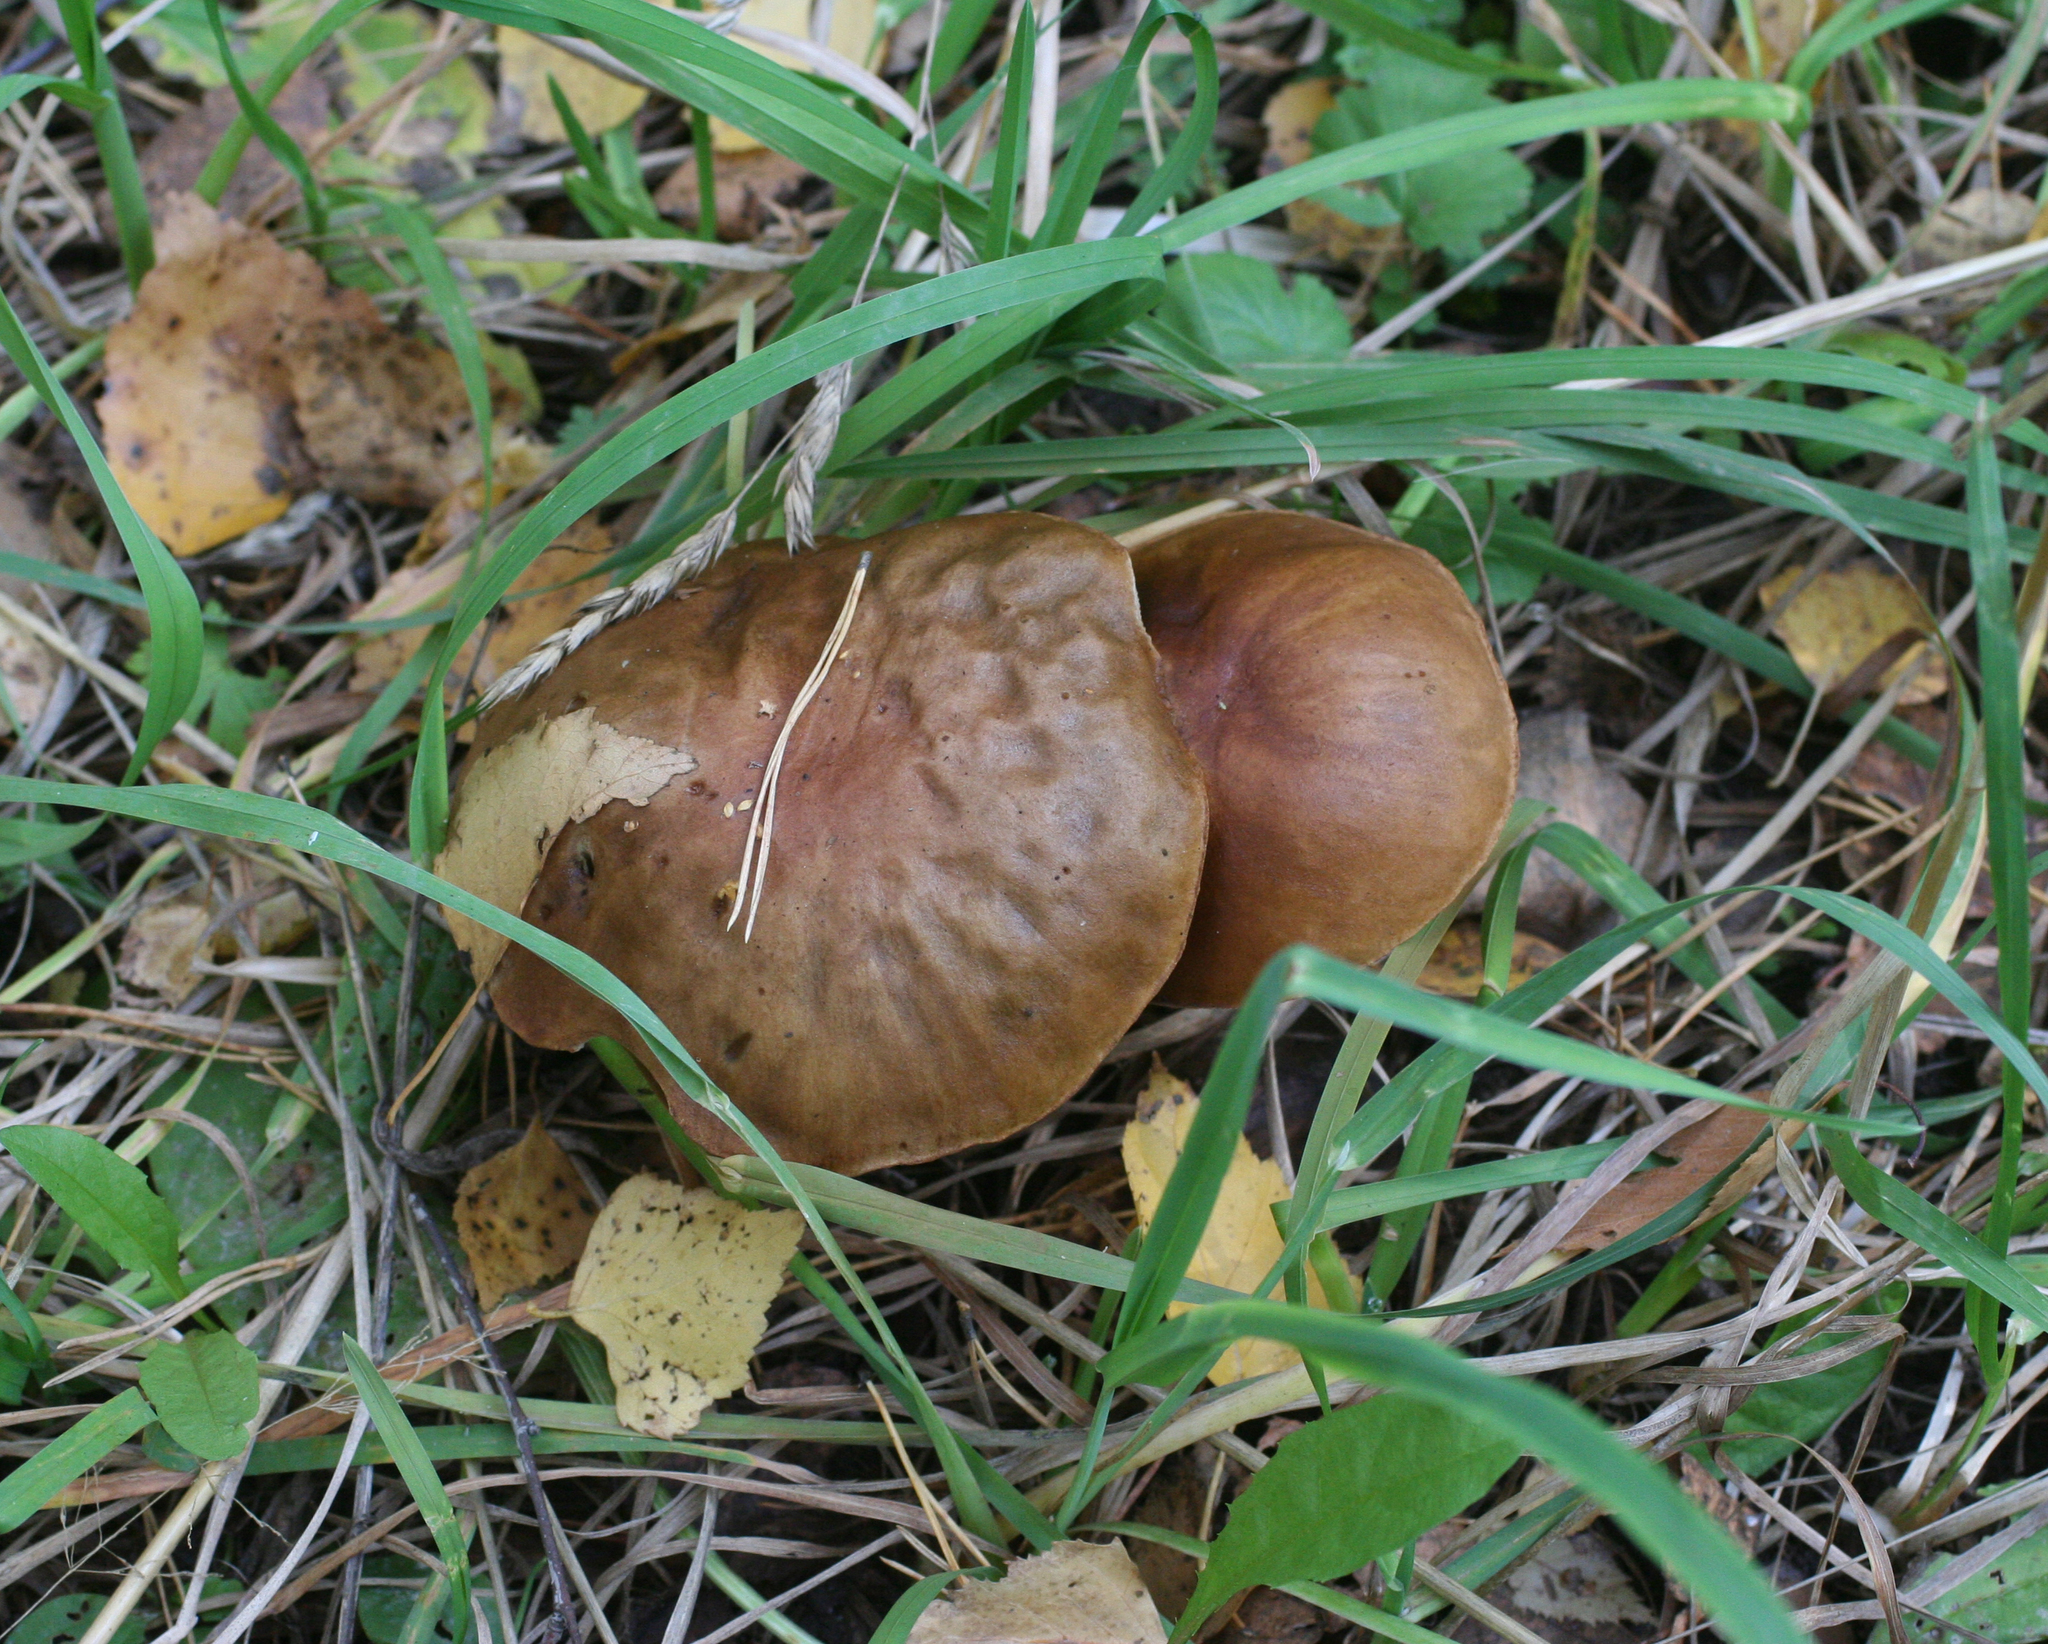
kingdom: Fungi
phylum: Basidiomycota
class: Agaricomycetes
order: Boletales
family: Boletaceae
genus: Leccinum
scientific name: Leccinum scabrum
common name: Blushing bolete
